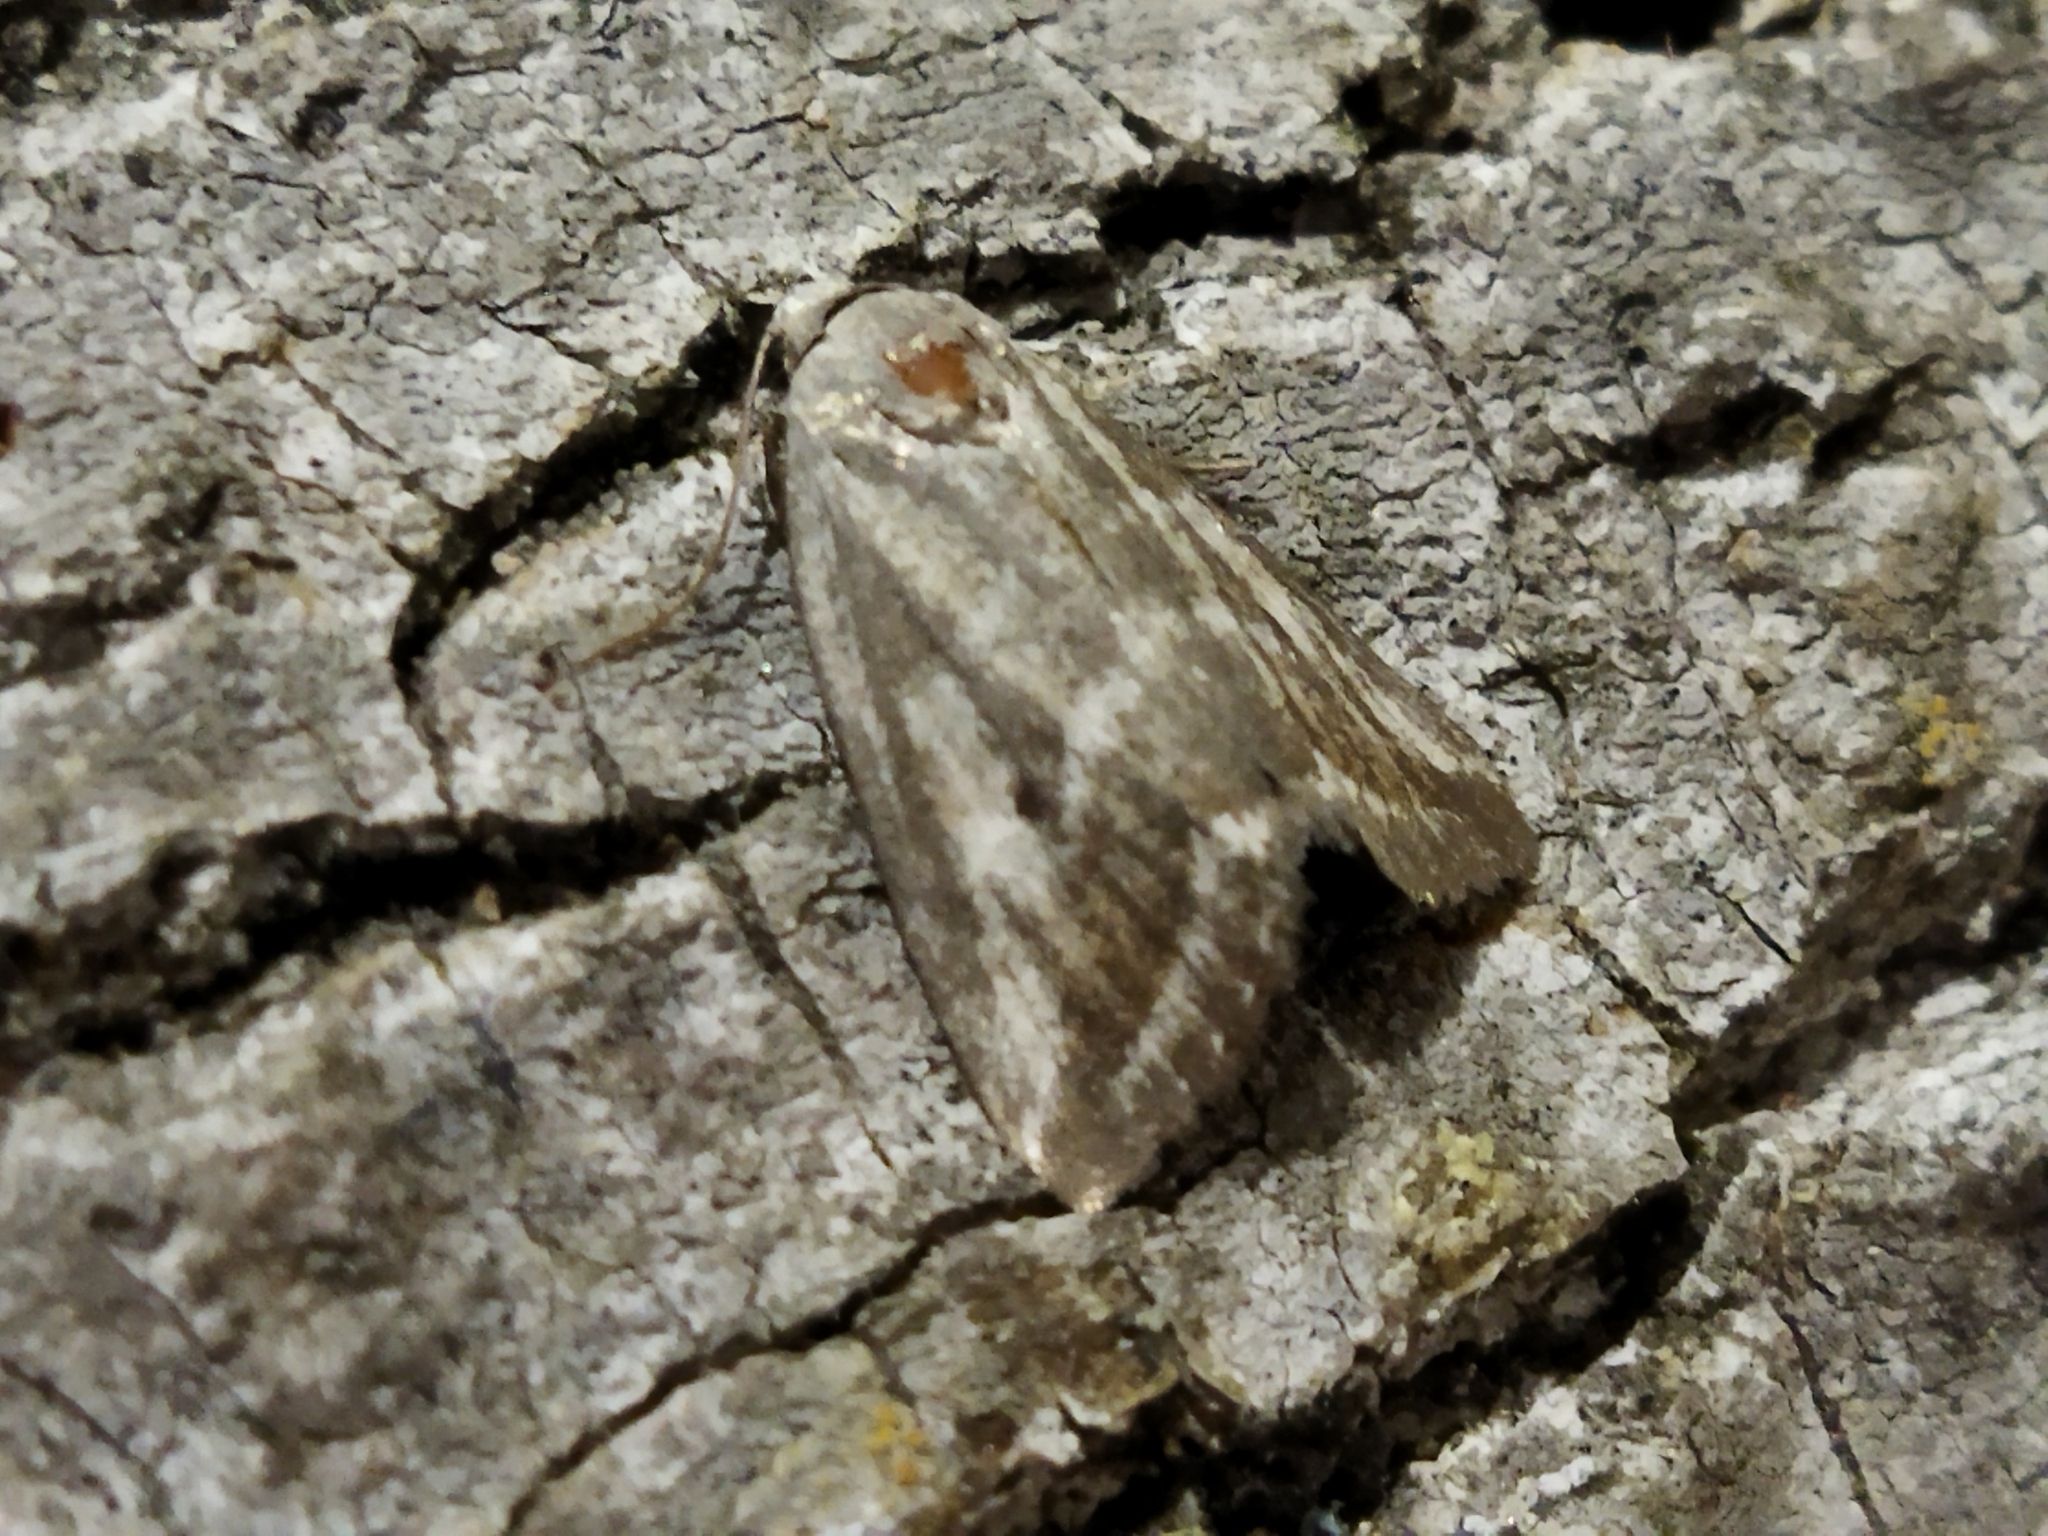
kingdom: Animalia
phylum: Arthropoda
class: Insecta
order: Lepidoptera
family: Noctuidae
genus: Phyllophila
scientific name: Phyllophila obliterata
